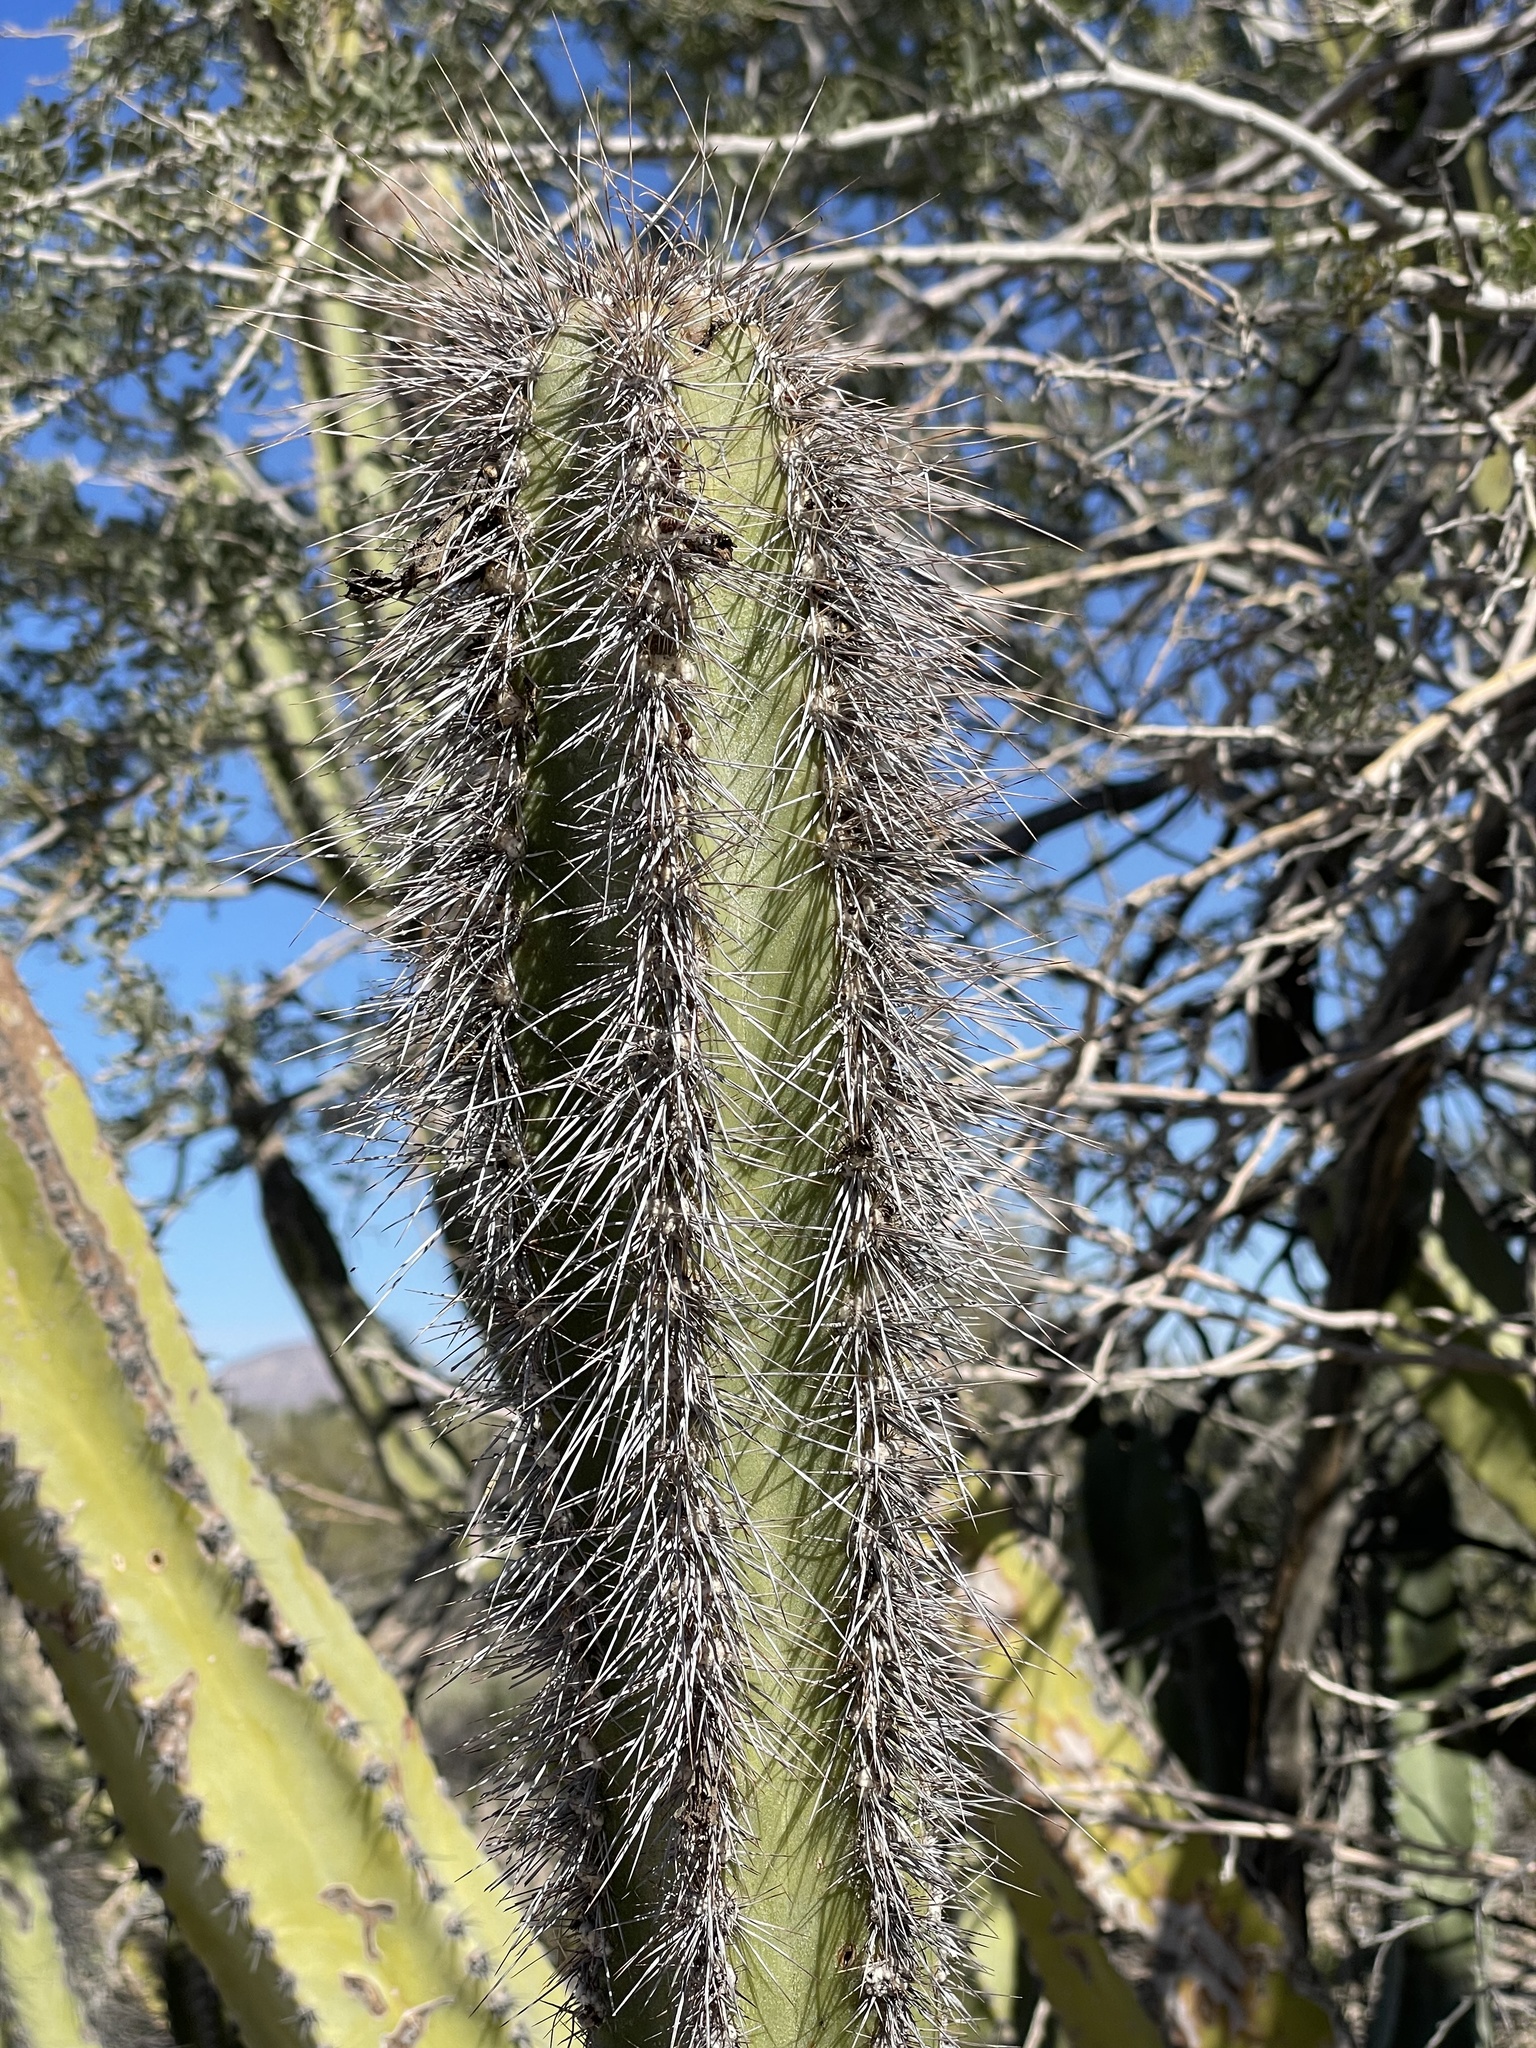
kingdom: Plantae
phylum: Tracheophyta
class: Magnoliopsida
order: Caryophyllales
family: Cactaceae
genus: Pachycereus
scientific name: Pachycereus schottii
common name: Senita cactus
